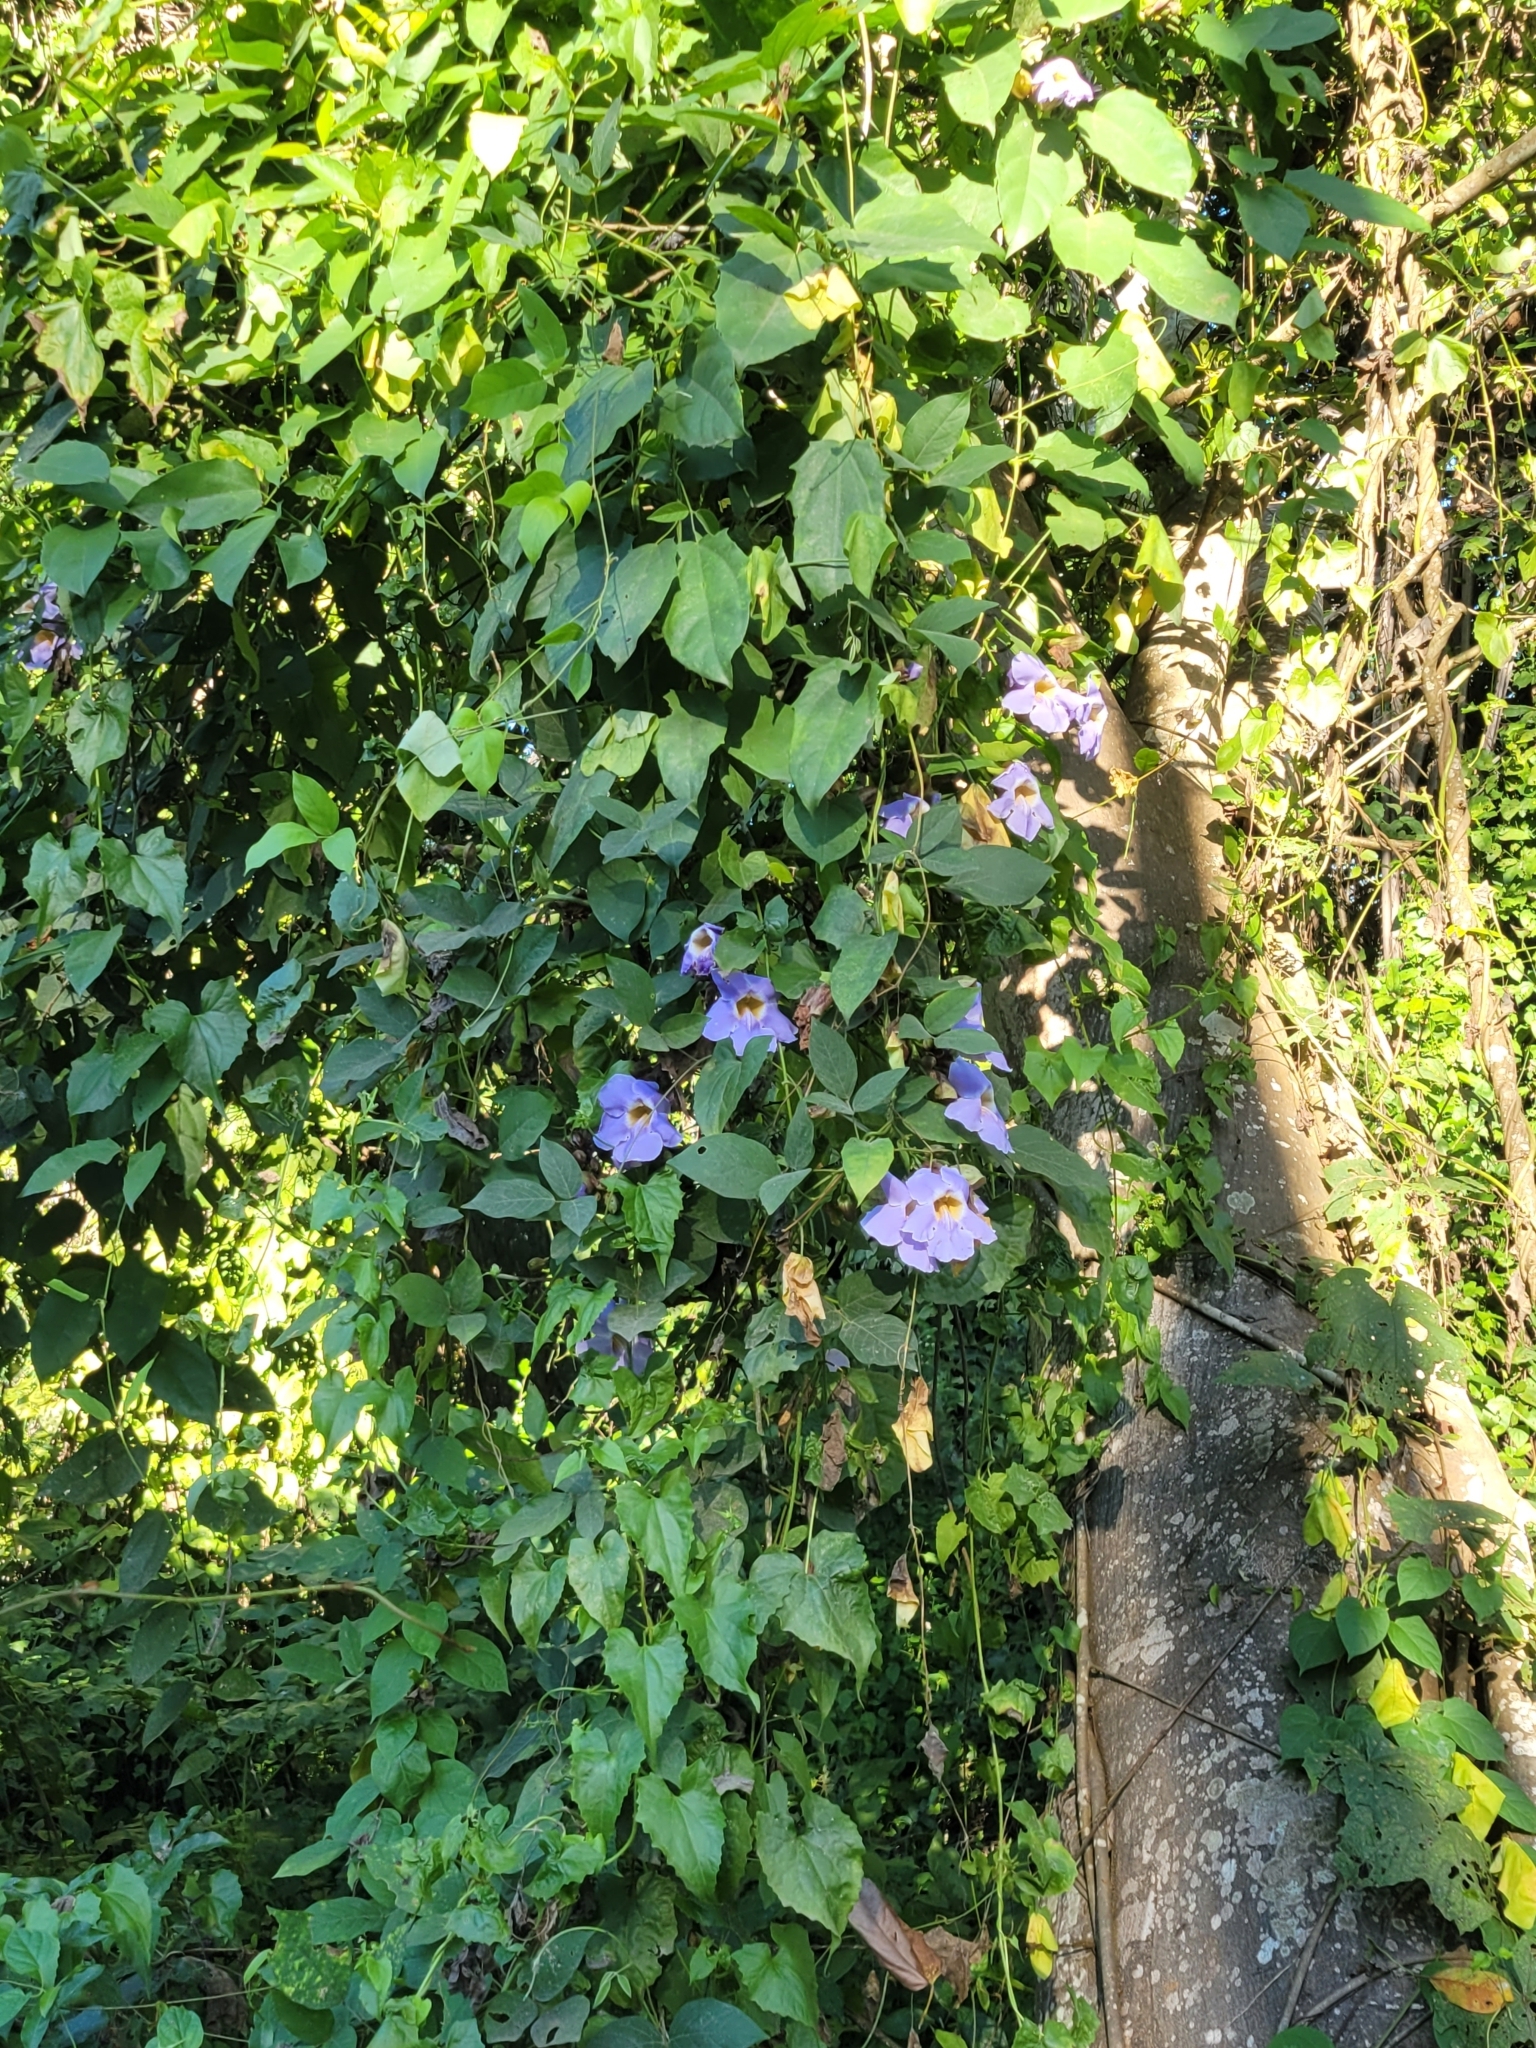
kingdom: Plantae
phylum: Tracheophyta
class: Magnoliopsida
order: Lamiales
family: Acanthaceae
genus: Thunbergia
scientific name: Thunbergia laurifolia
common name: Laurel-leaved thunbergia
